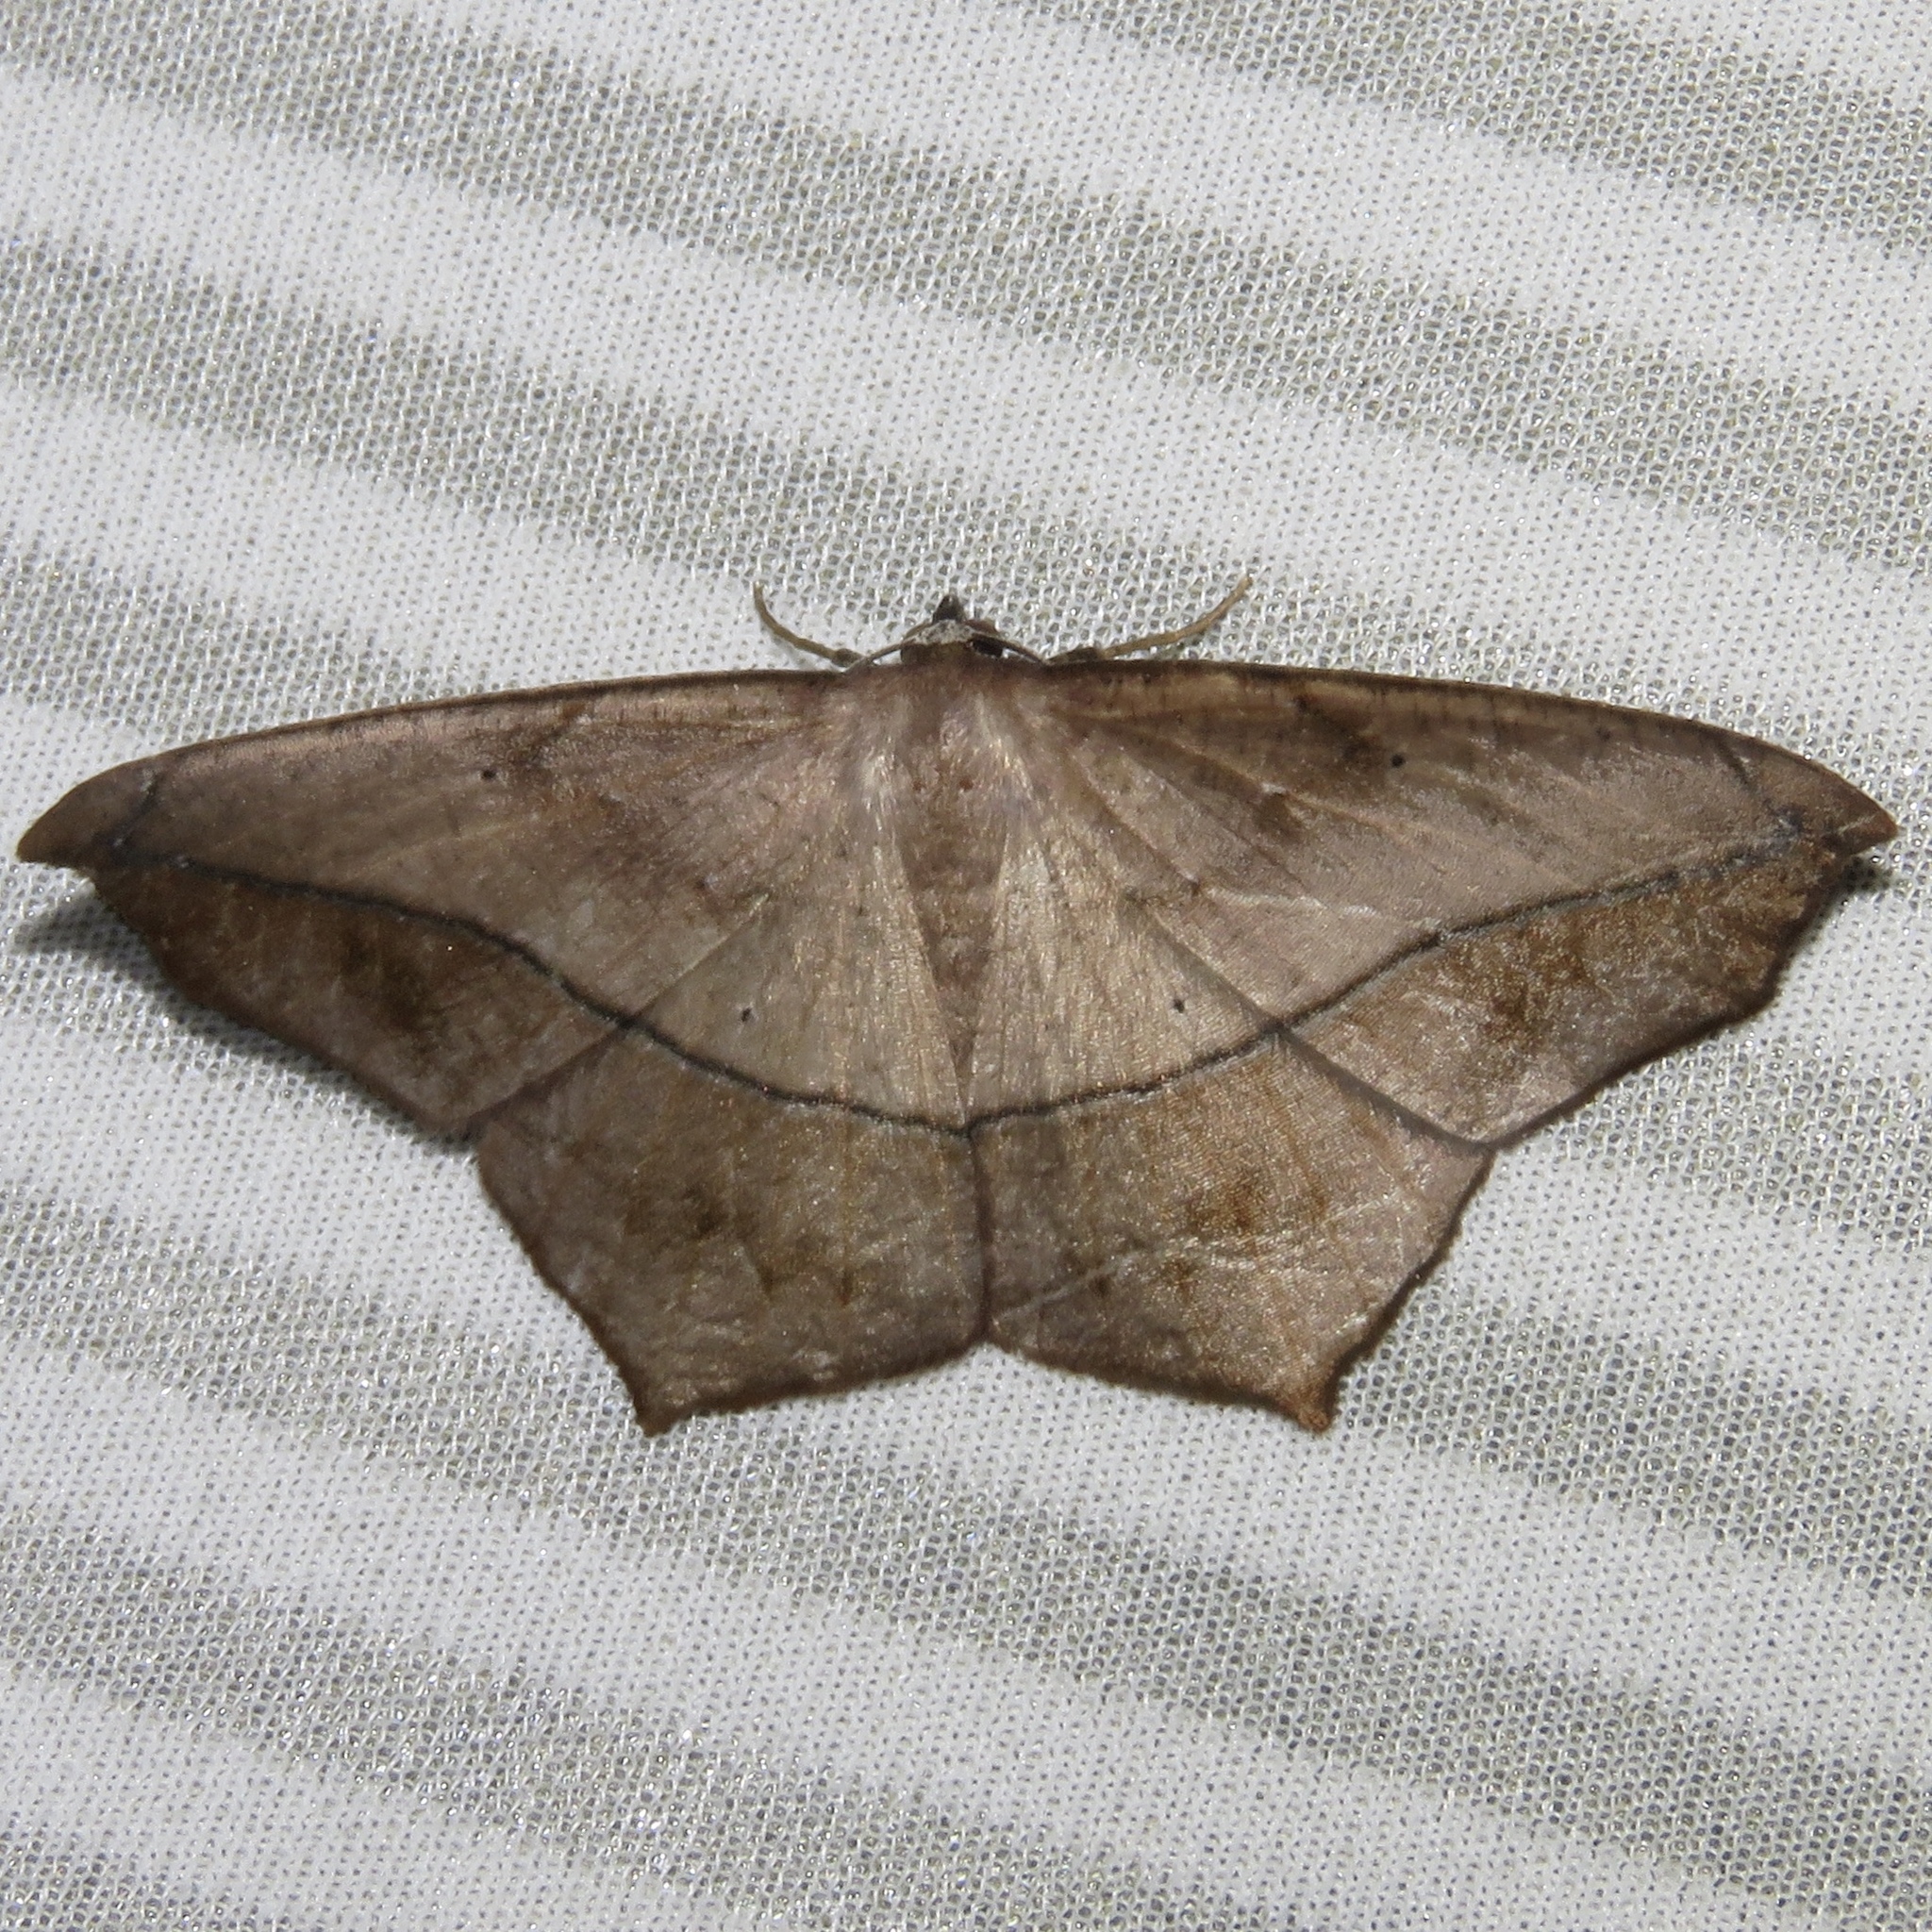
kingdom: Animalia
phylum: Arthropoda
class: Insecta
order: Lepidoptera
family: Geometridae
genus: Prochoerodes
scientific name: Prochoerodes lineola
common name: Large maple spanworm
